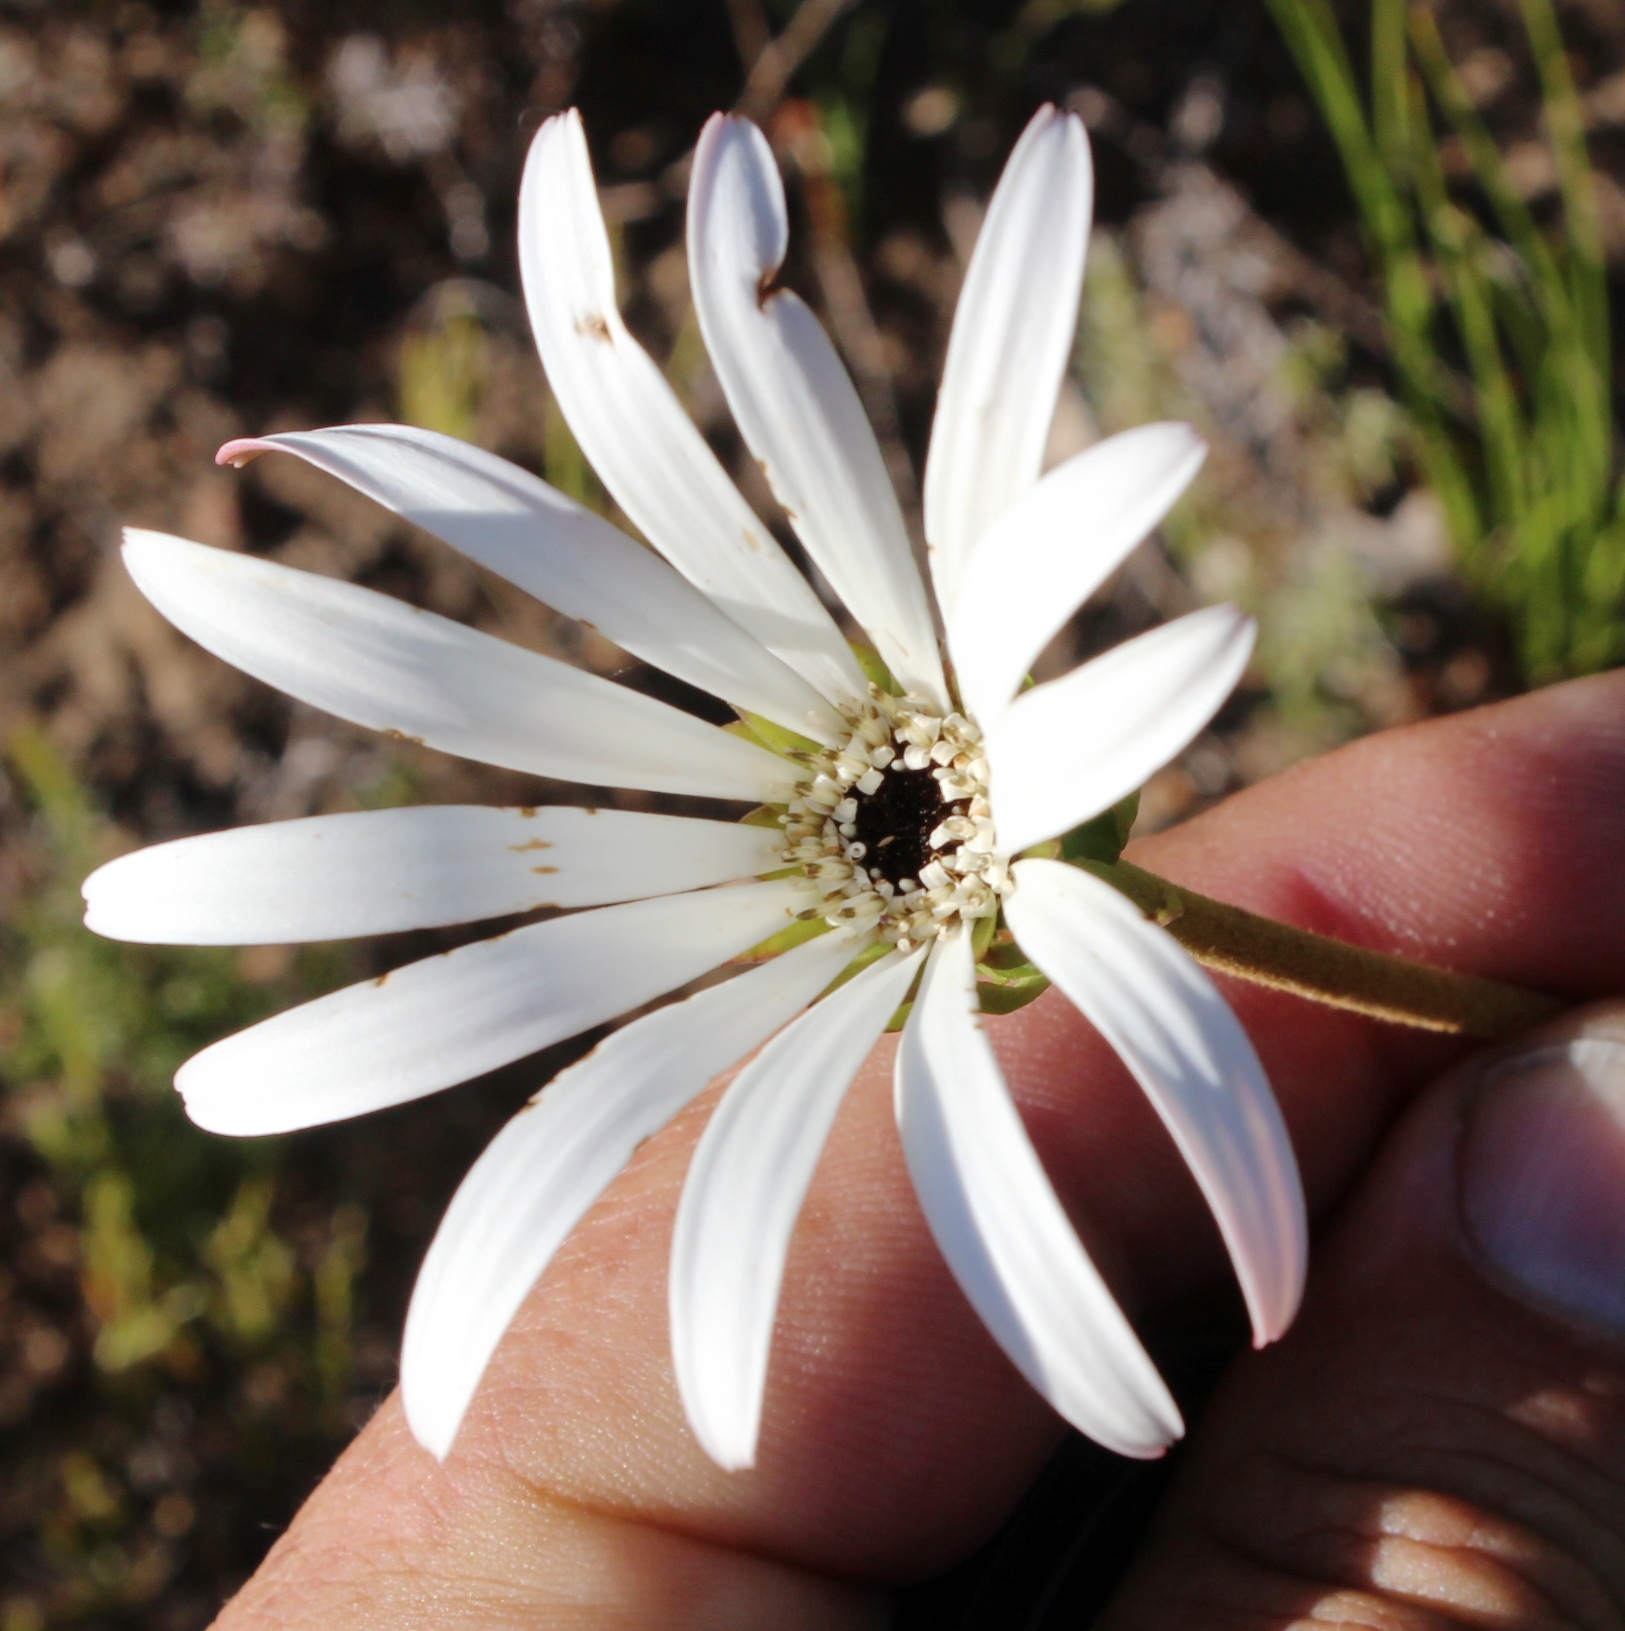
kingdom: Plantae
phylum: Tracheophyta
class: Magnoliopsida
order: Asterales
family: Asteraceae
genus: Gerbera
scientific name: Gerbera linnaei
